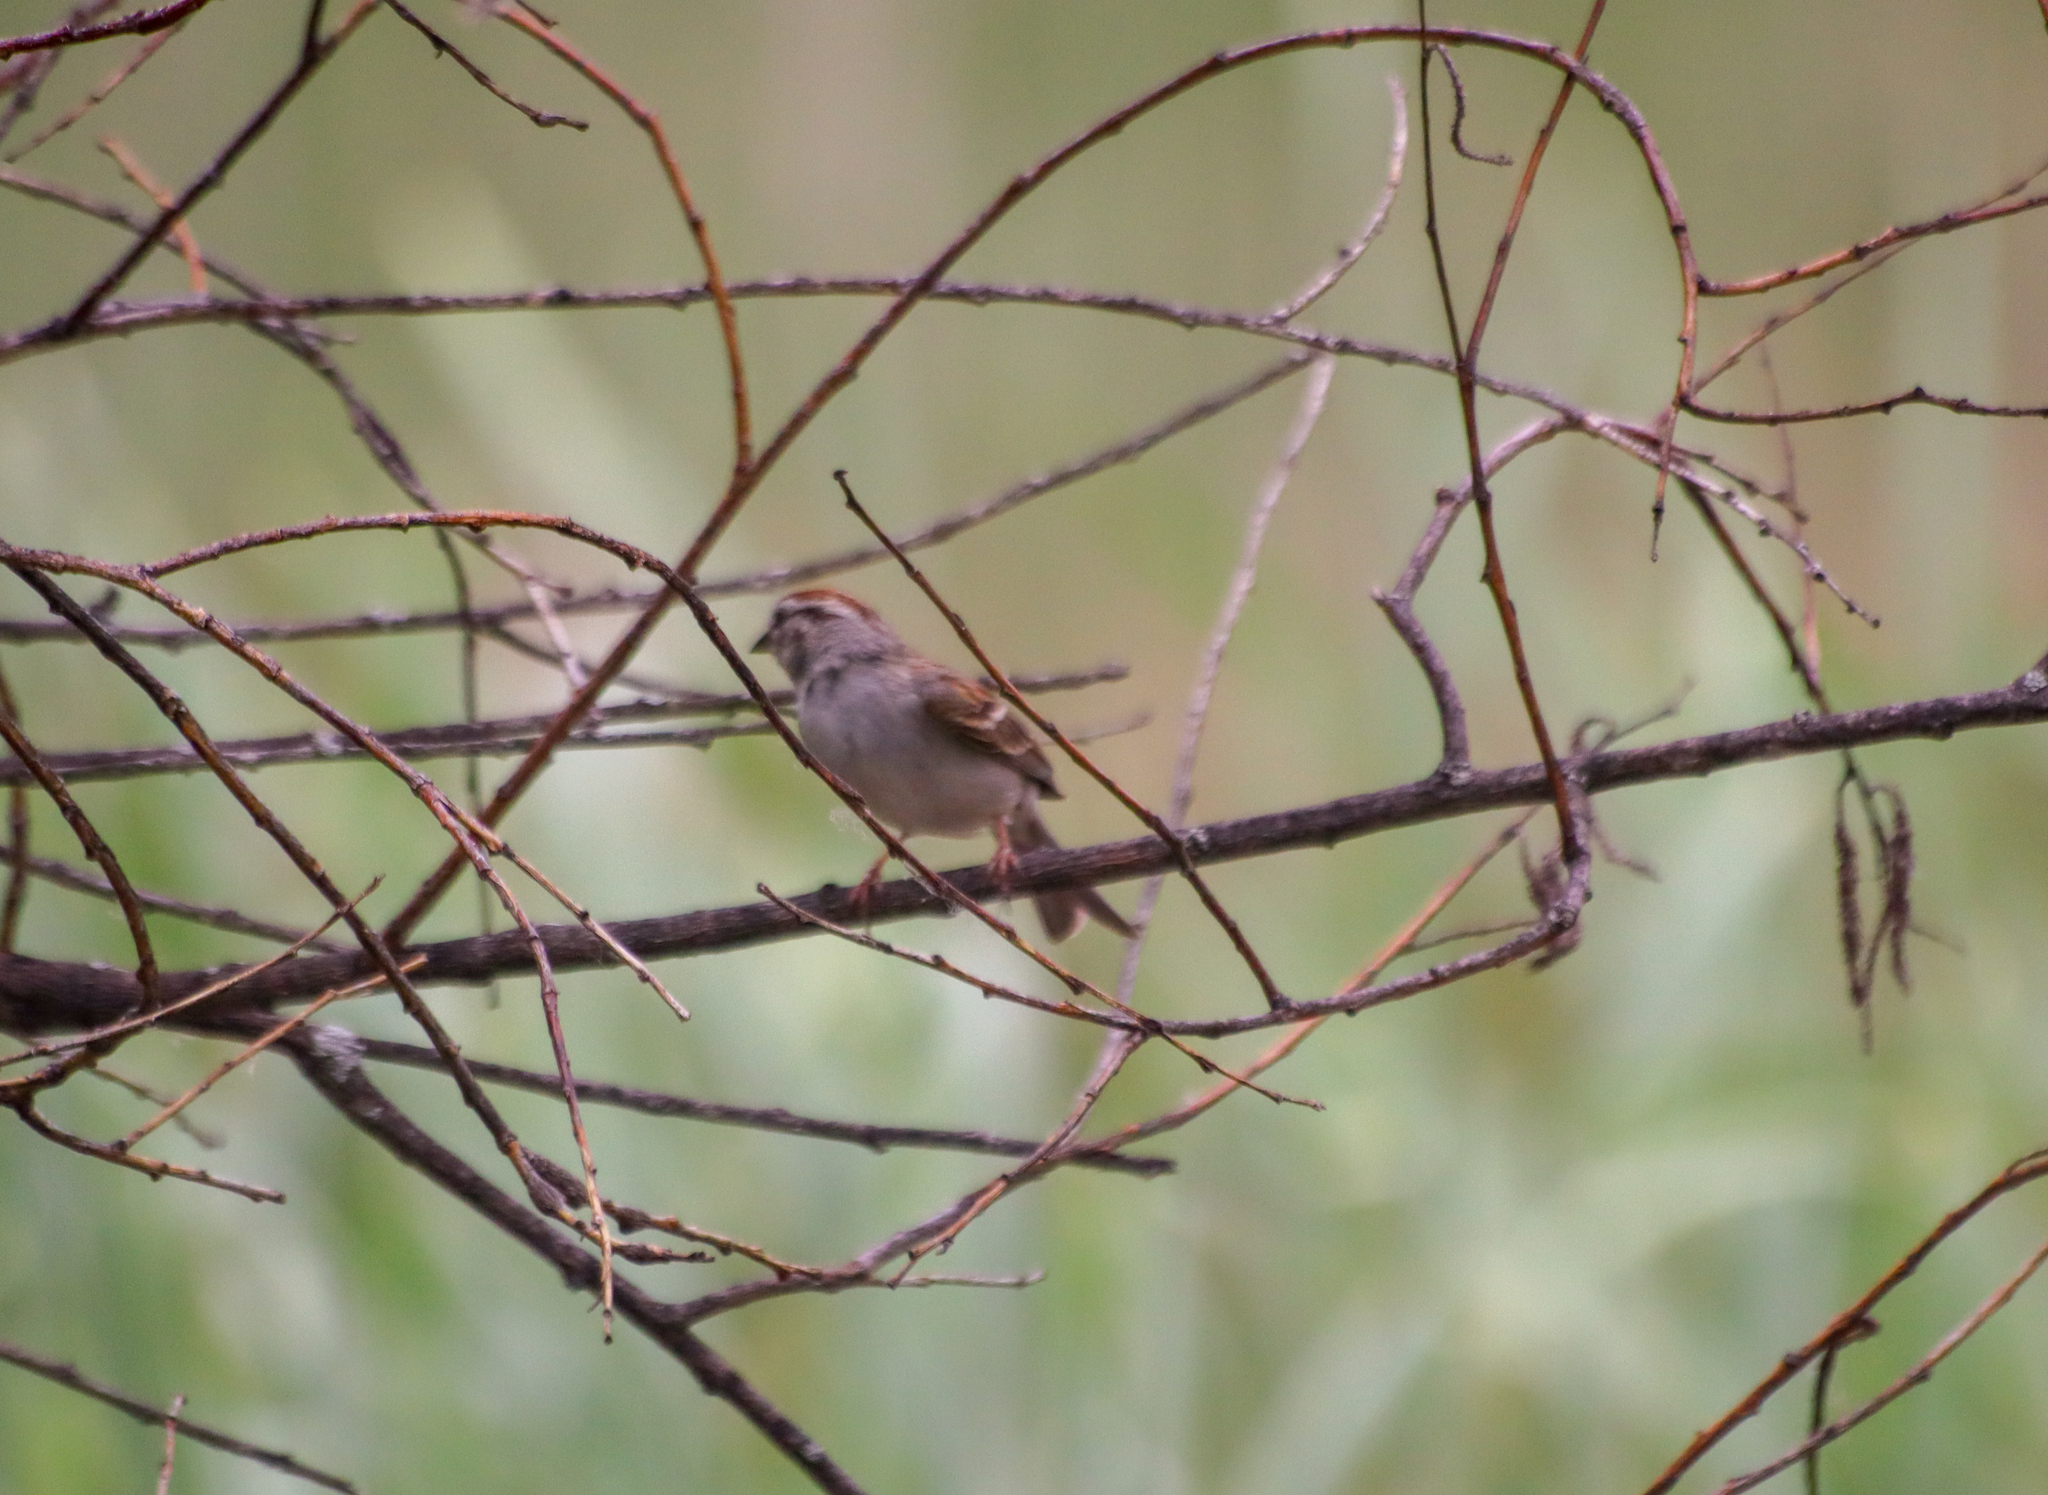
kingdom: Animalia
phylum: Chordata
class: Aves
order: Passeriformes
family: Passerellidae
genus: Spizella
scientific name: Spizella passerina
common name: Chipping sparrow
